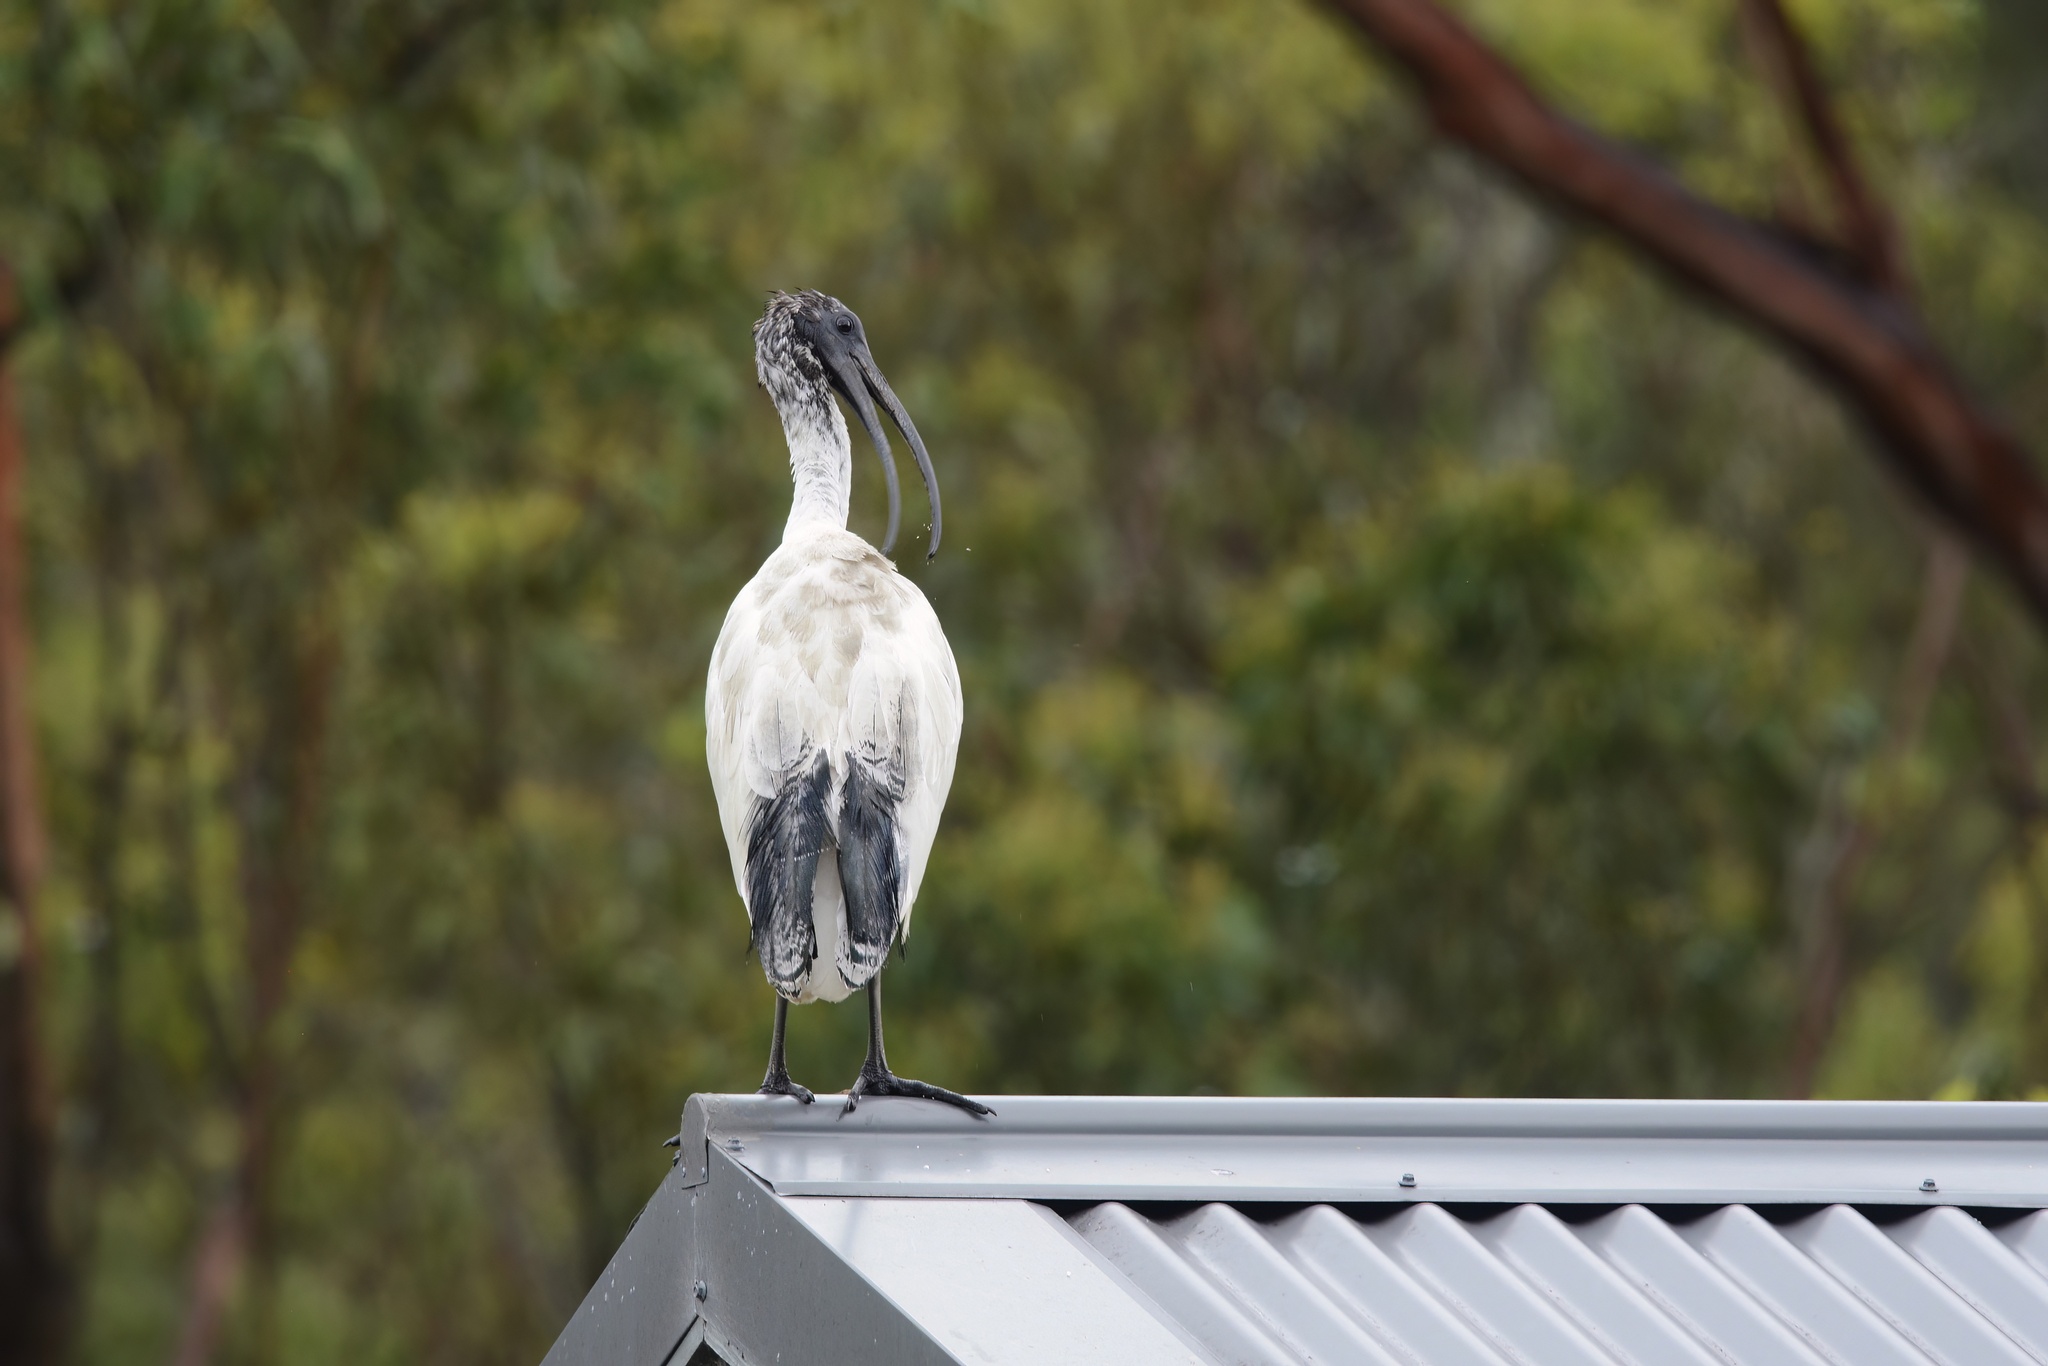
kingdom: Animalia
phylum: Chordata
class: Aves
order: Pelecaniformes
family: Threskiornithidae
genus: Threskiornis
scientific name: Threskiornis molucca
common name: Australian white ibis
